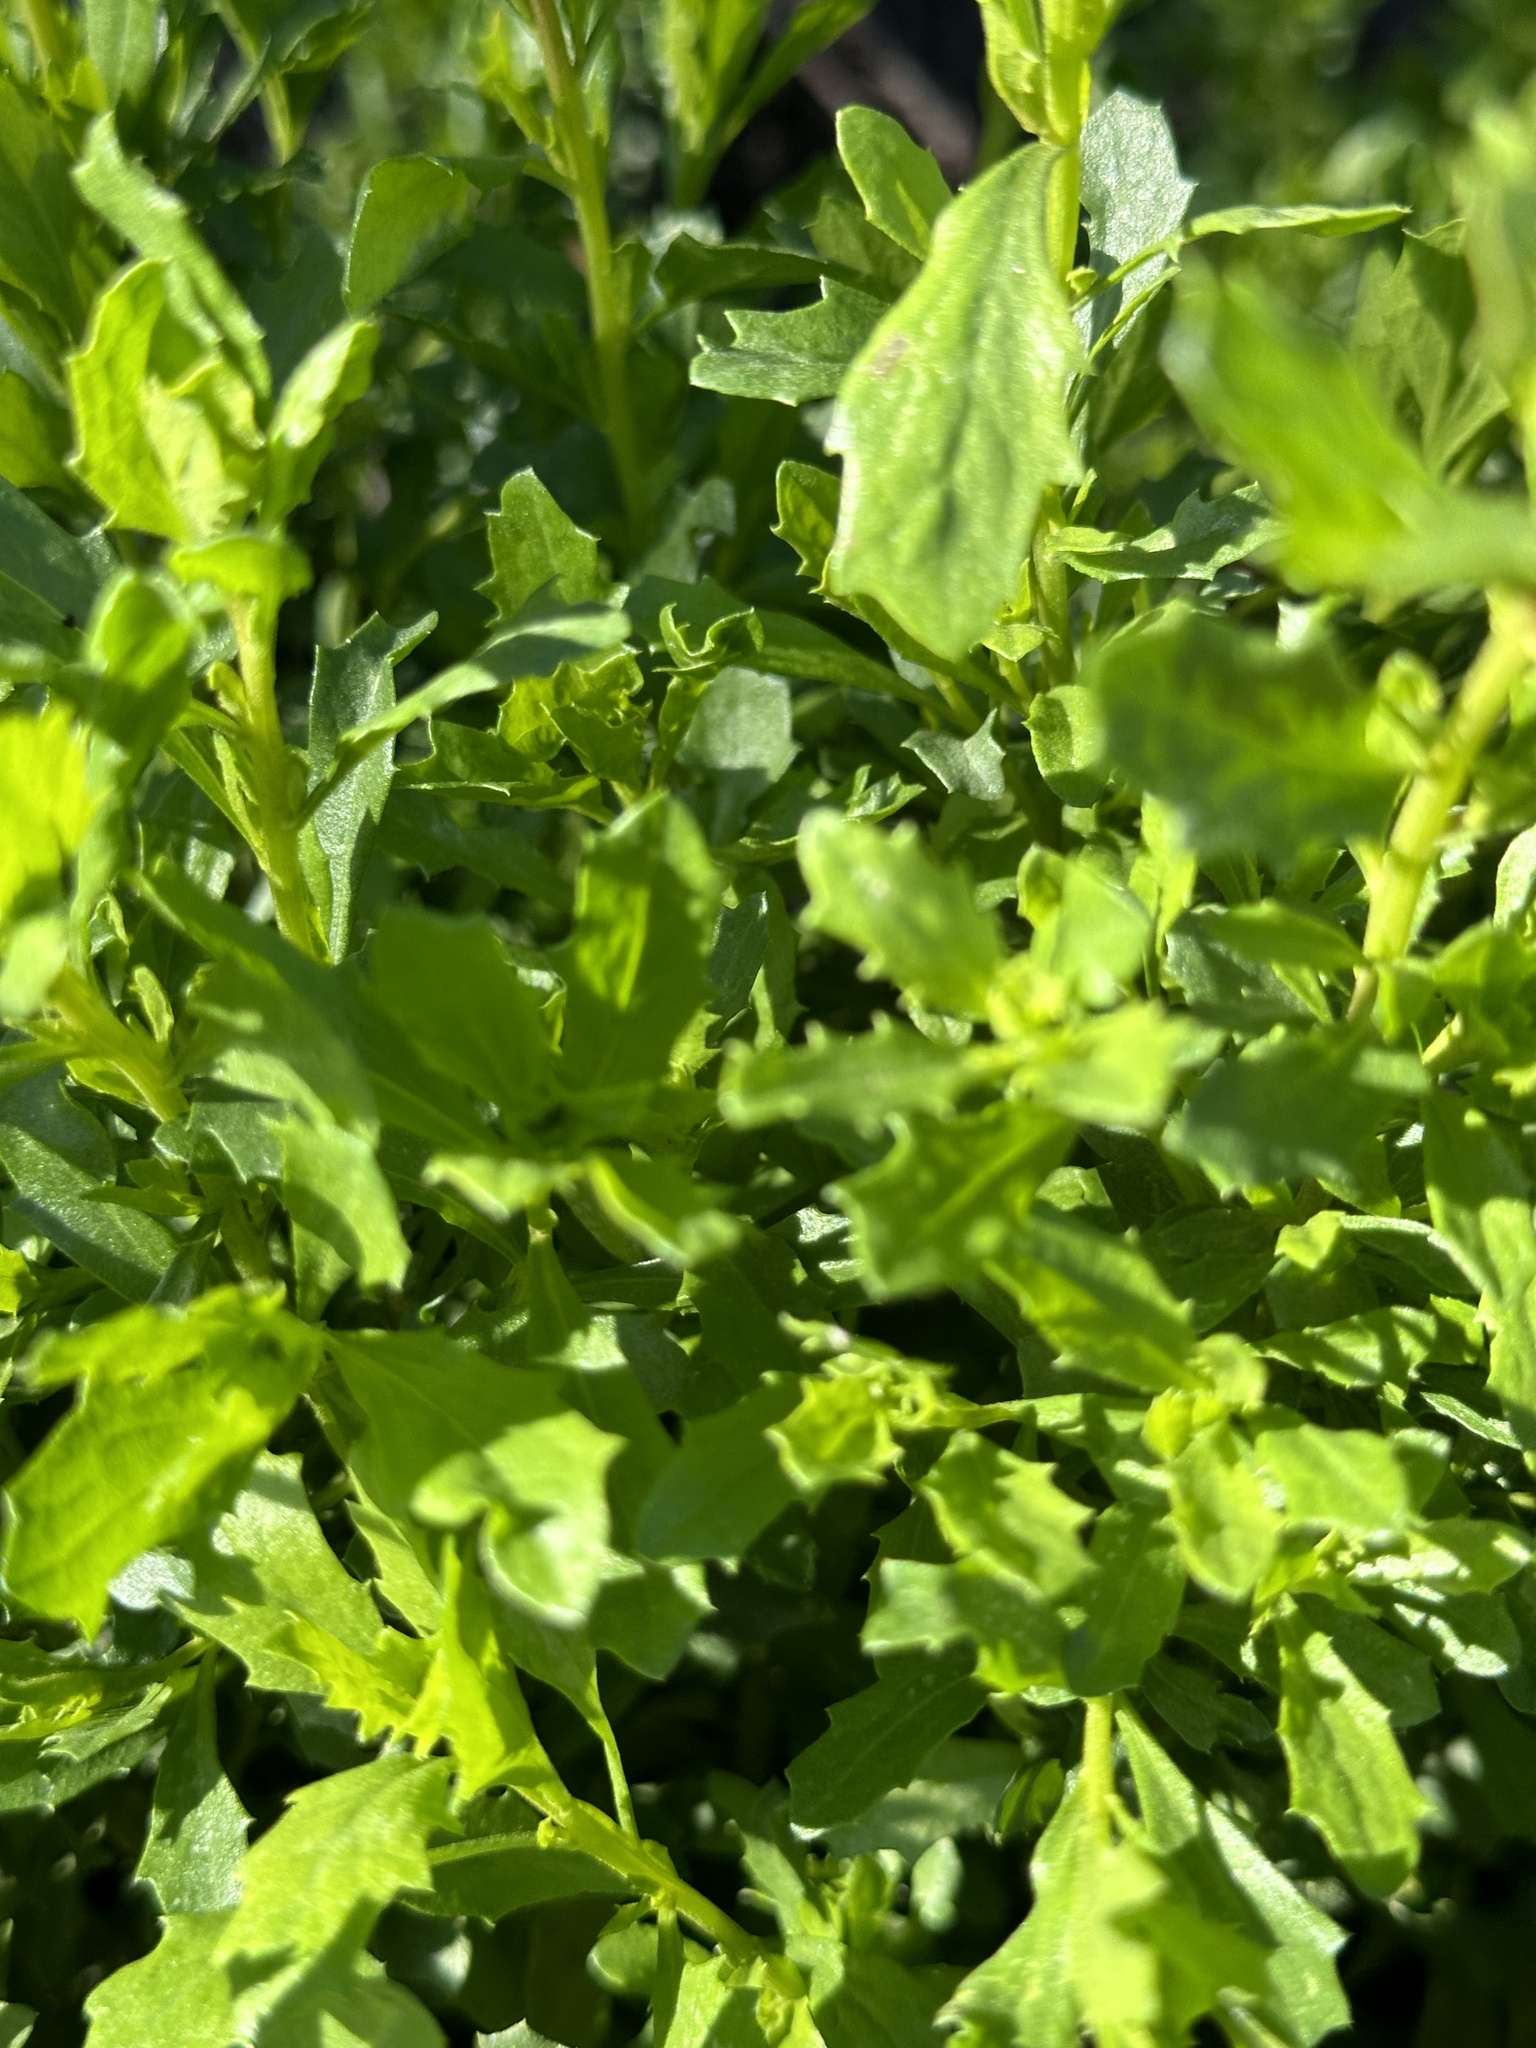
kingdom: Plantae
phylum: Tracheophyta
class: Magnoliopsida
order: Asterales
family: Asteraceae
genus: Baccharis
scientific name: Baccharis pilularis
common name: Coyotebrush
